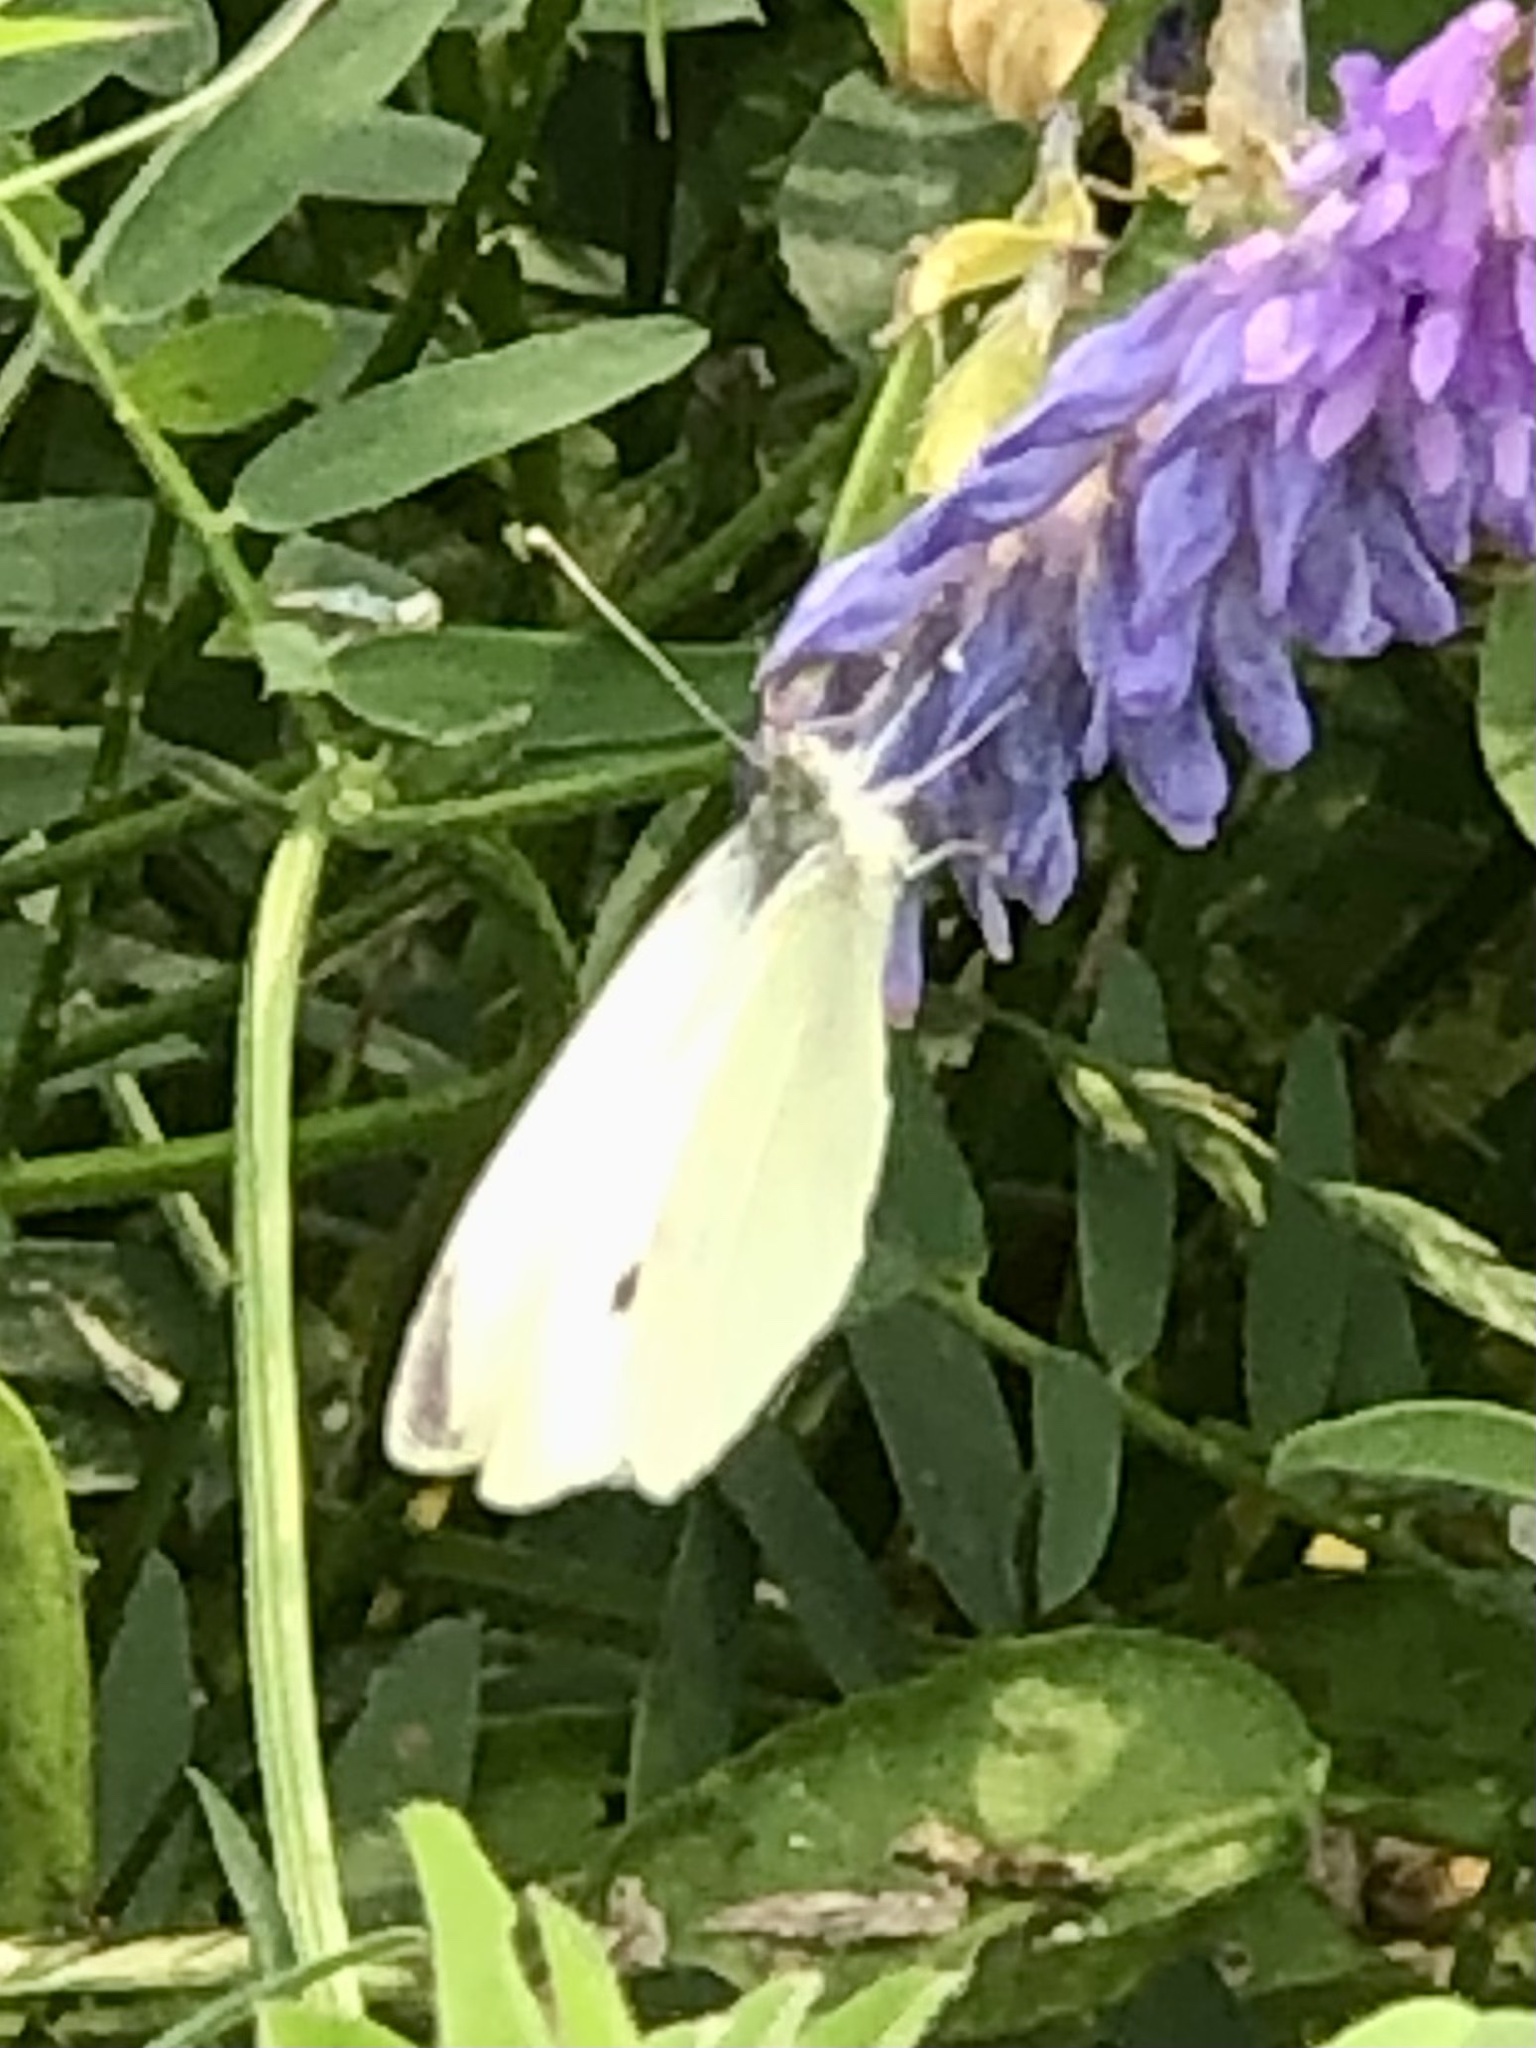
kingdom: Animalia
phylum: Arthropoda
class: Insecta
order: Lepidoptera
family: Pieridae
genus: Pieris
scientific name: Pieris rapae
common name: Small white
